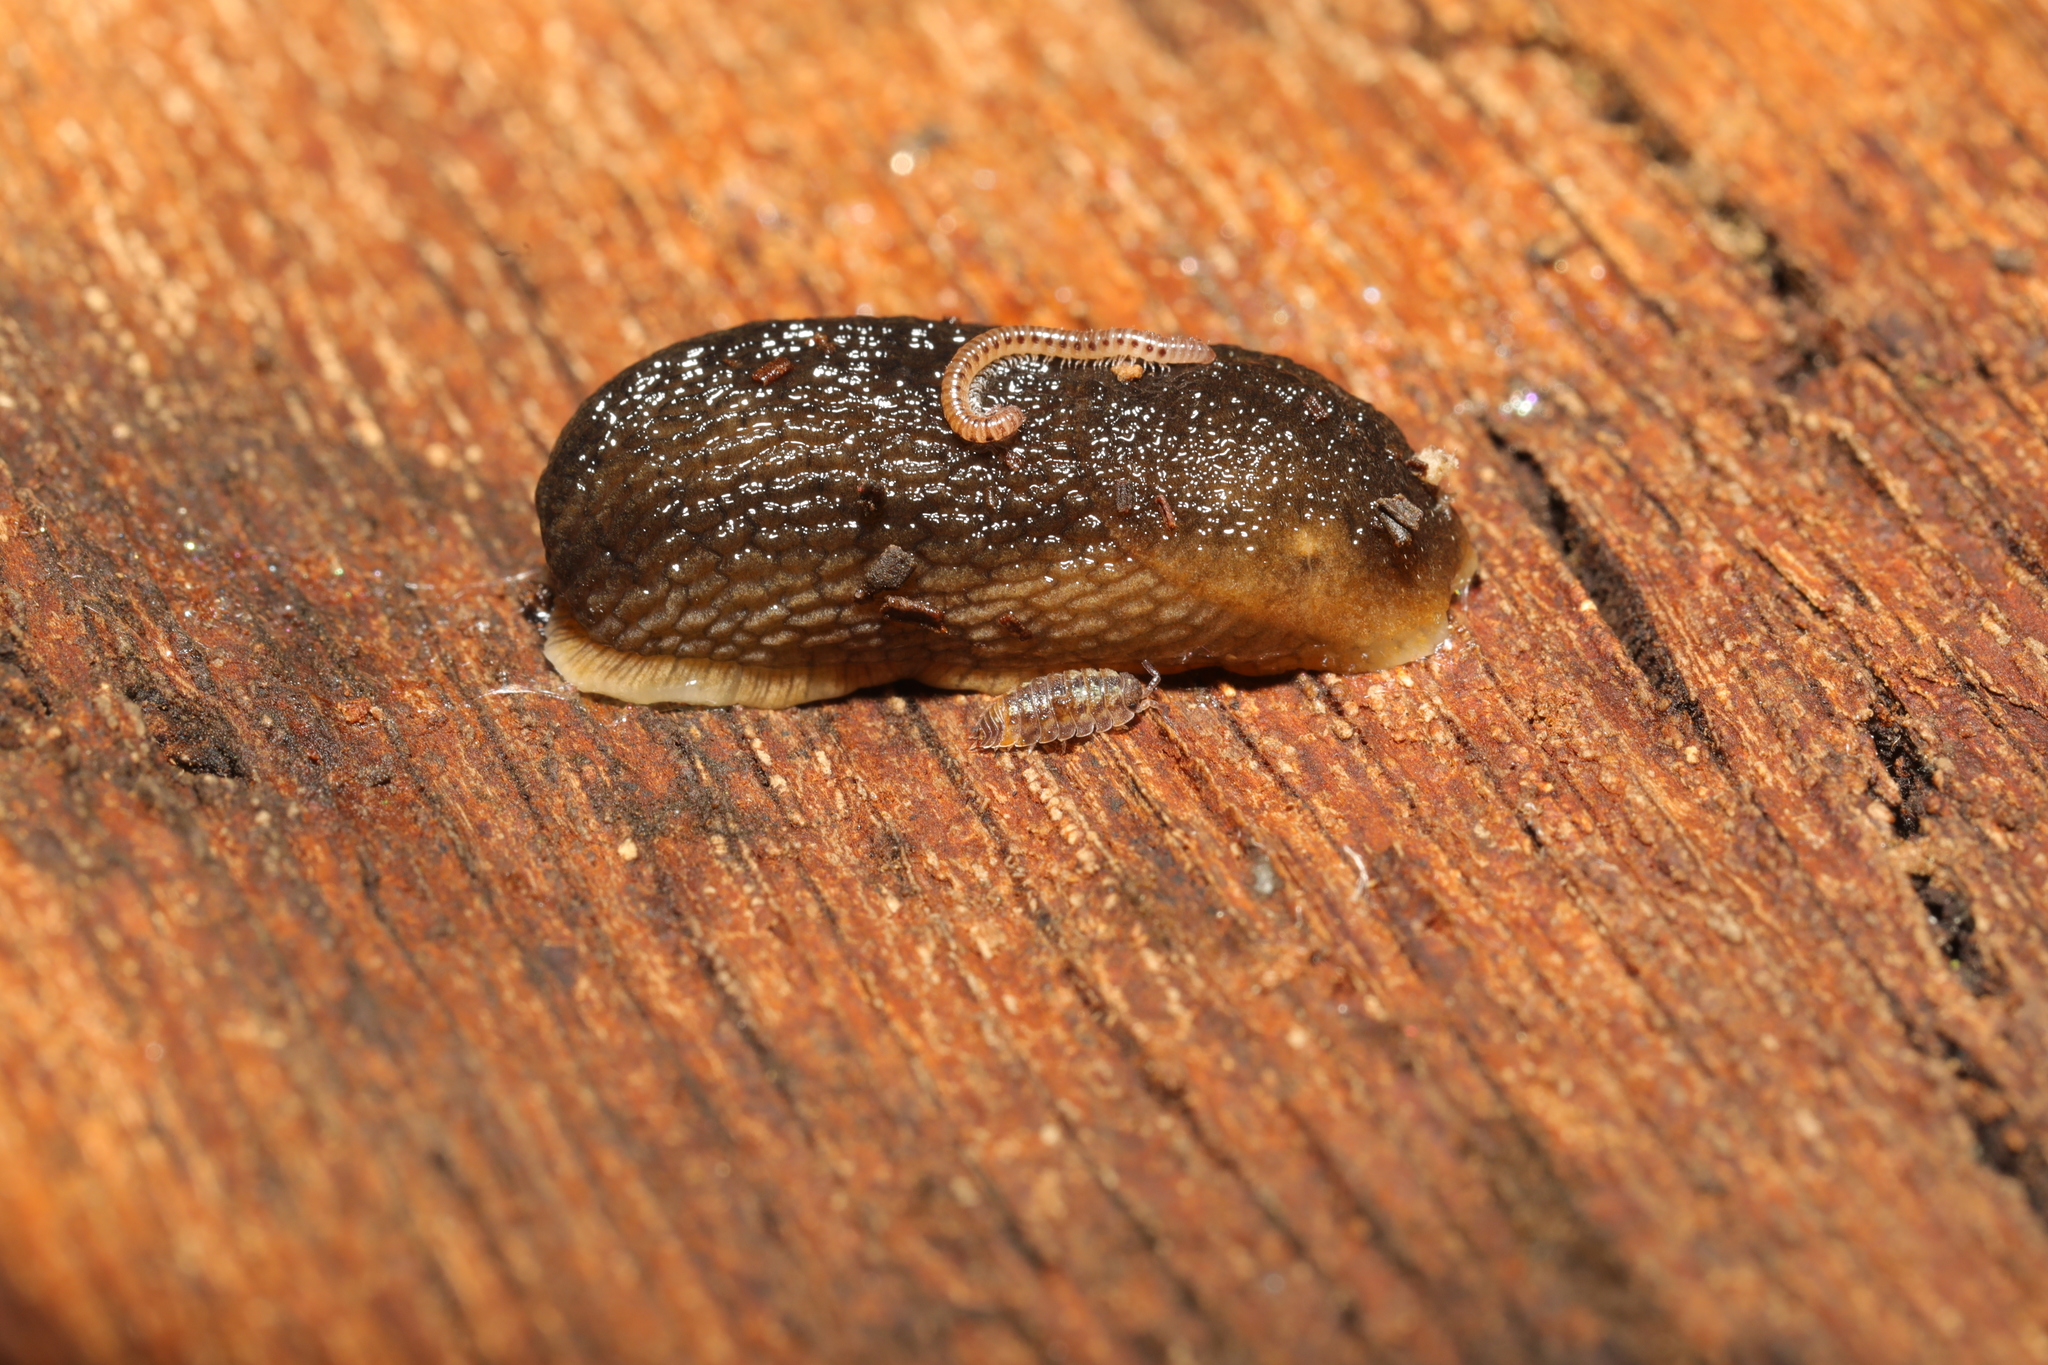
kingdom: Animalia
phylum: Mollusca
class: Gastropoda
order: Stylommatophora
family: Arionidae
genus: Arion
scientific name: Arion subfuscus
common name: Dusky arion
